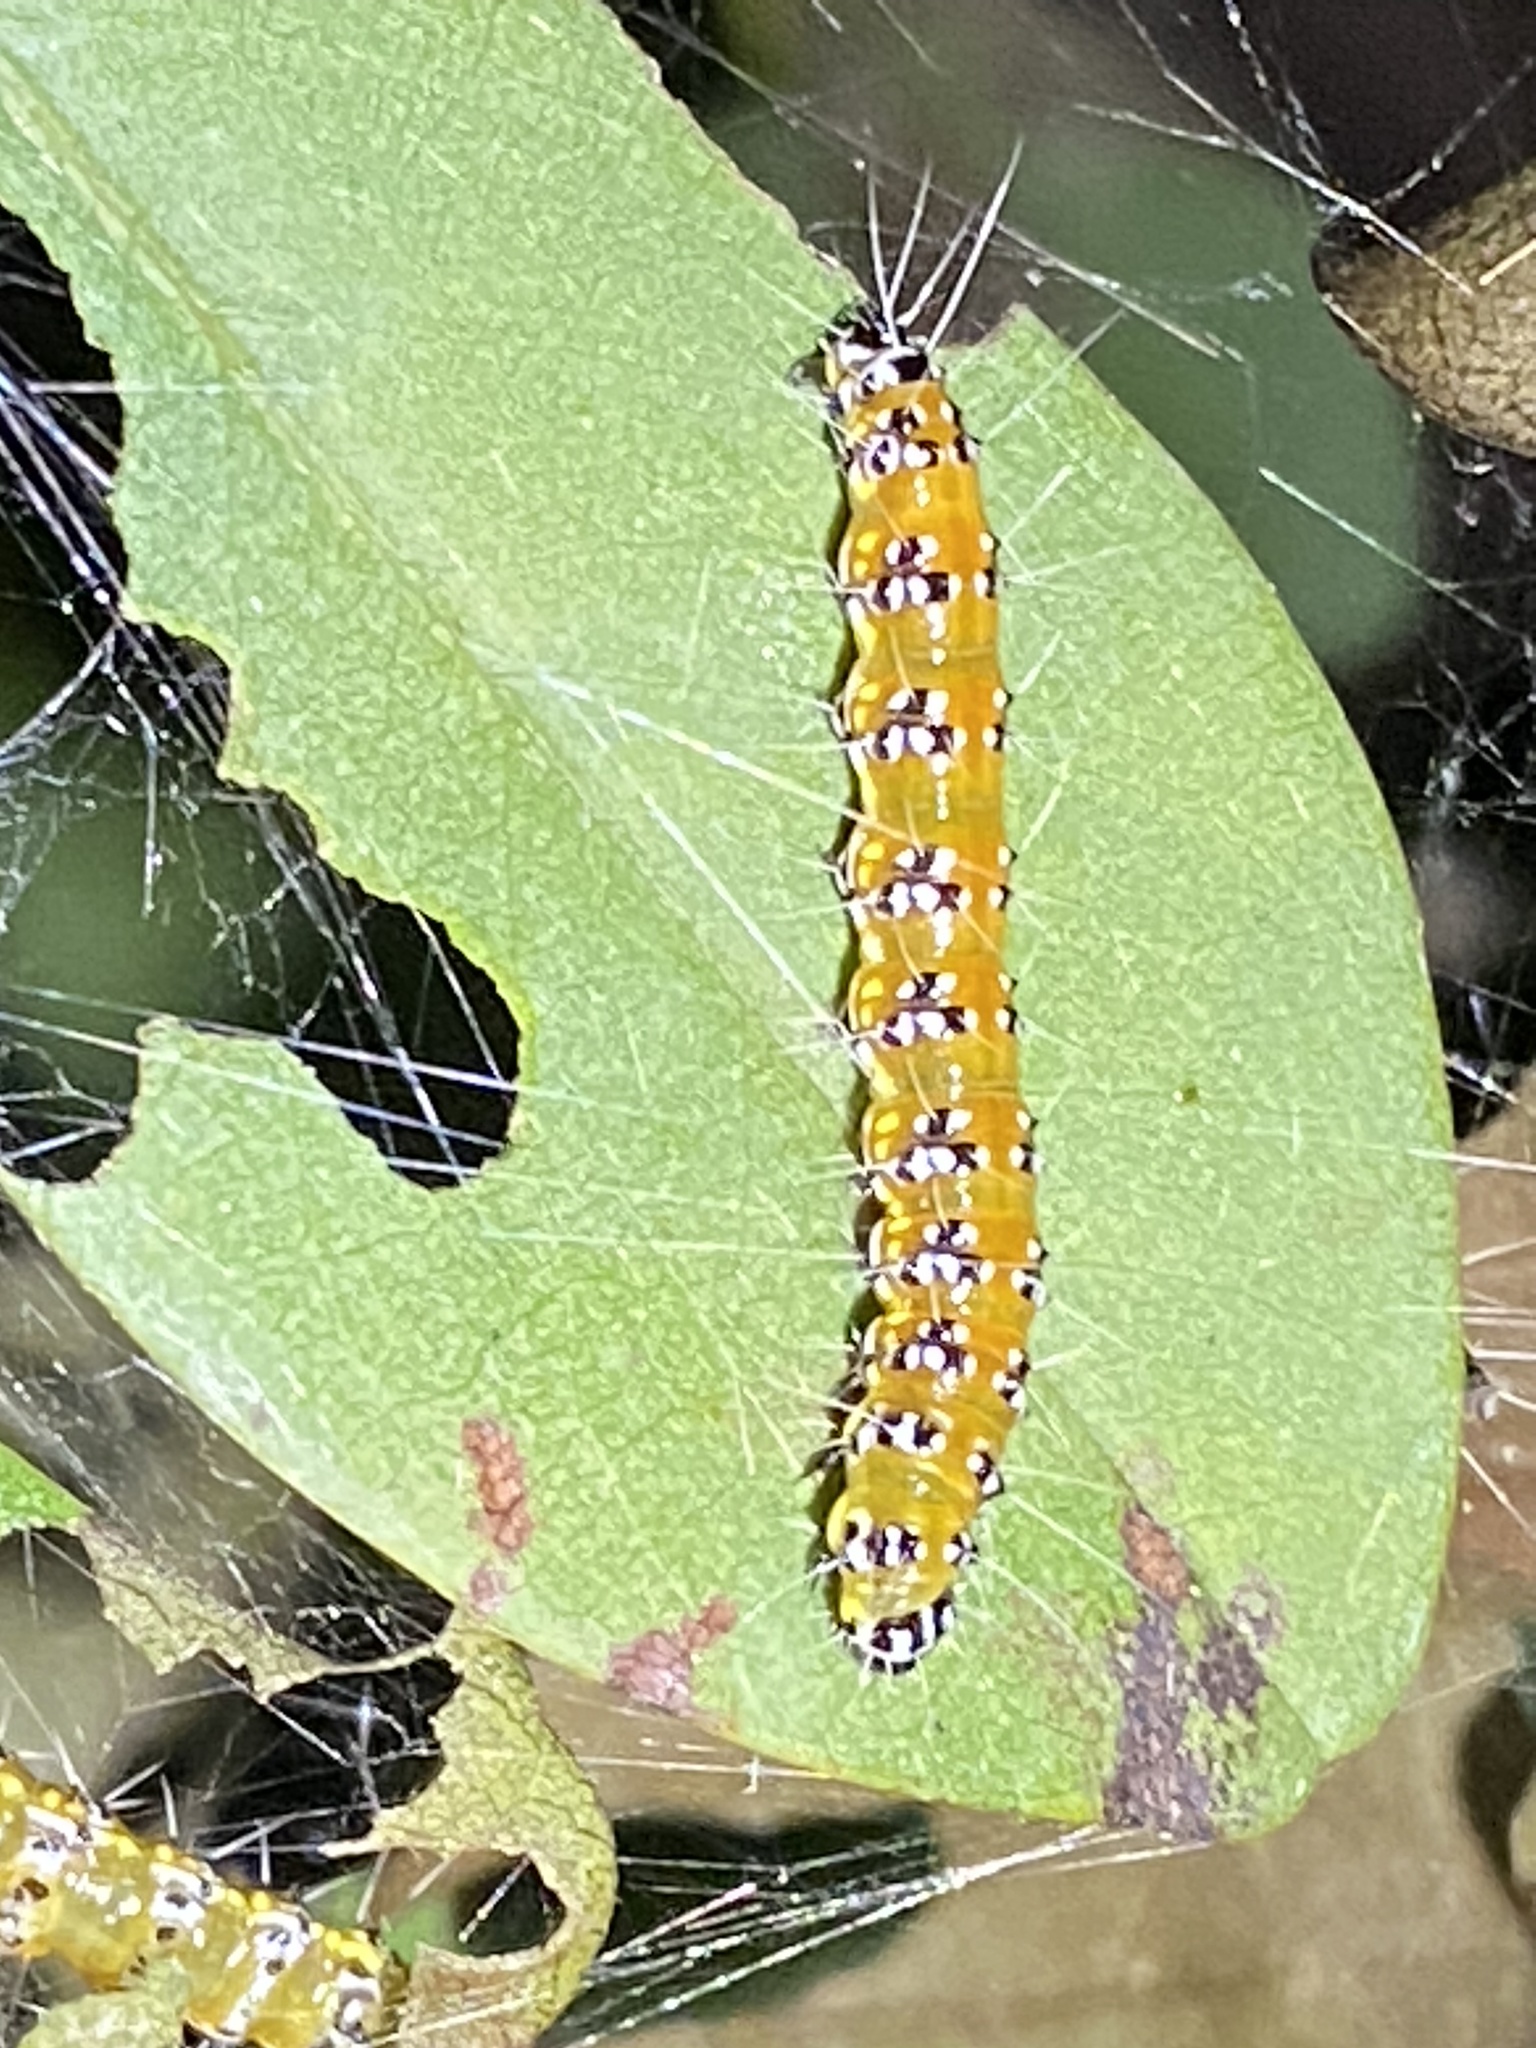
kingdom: Animalia
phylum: Arthropoda
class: Insecta
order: Lepidoptera
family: Crambidae
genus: Uresiphita
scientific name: Uresiphita reversalis
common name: Genista broom moth
